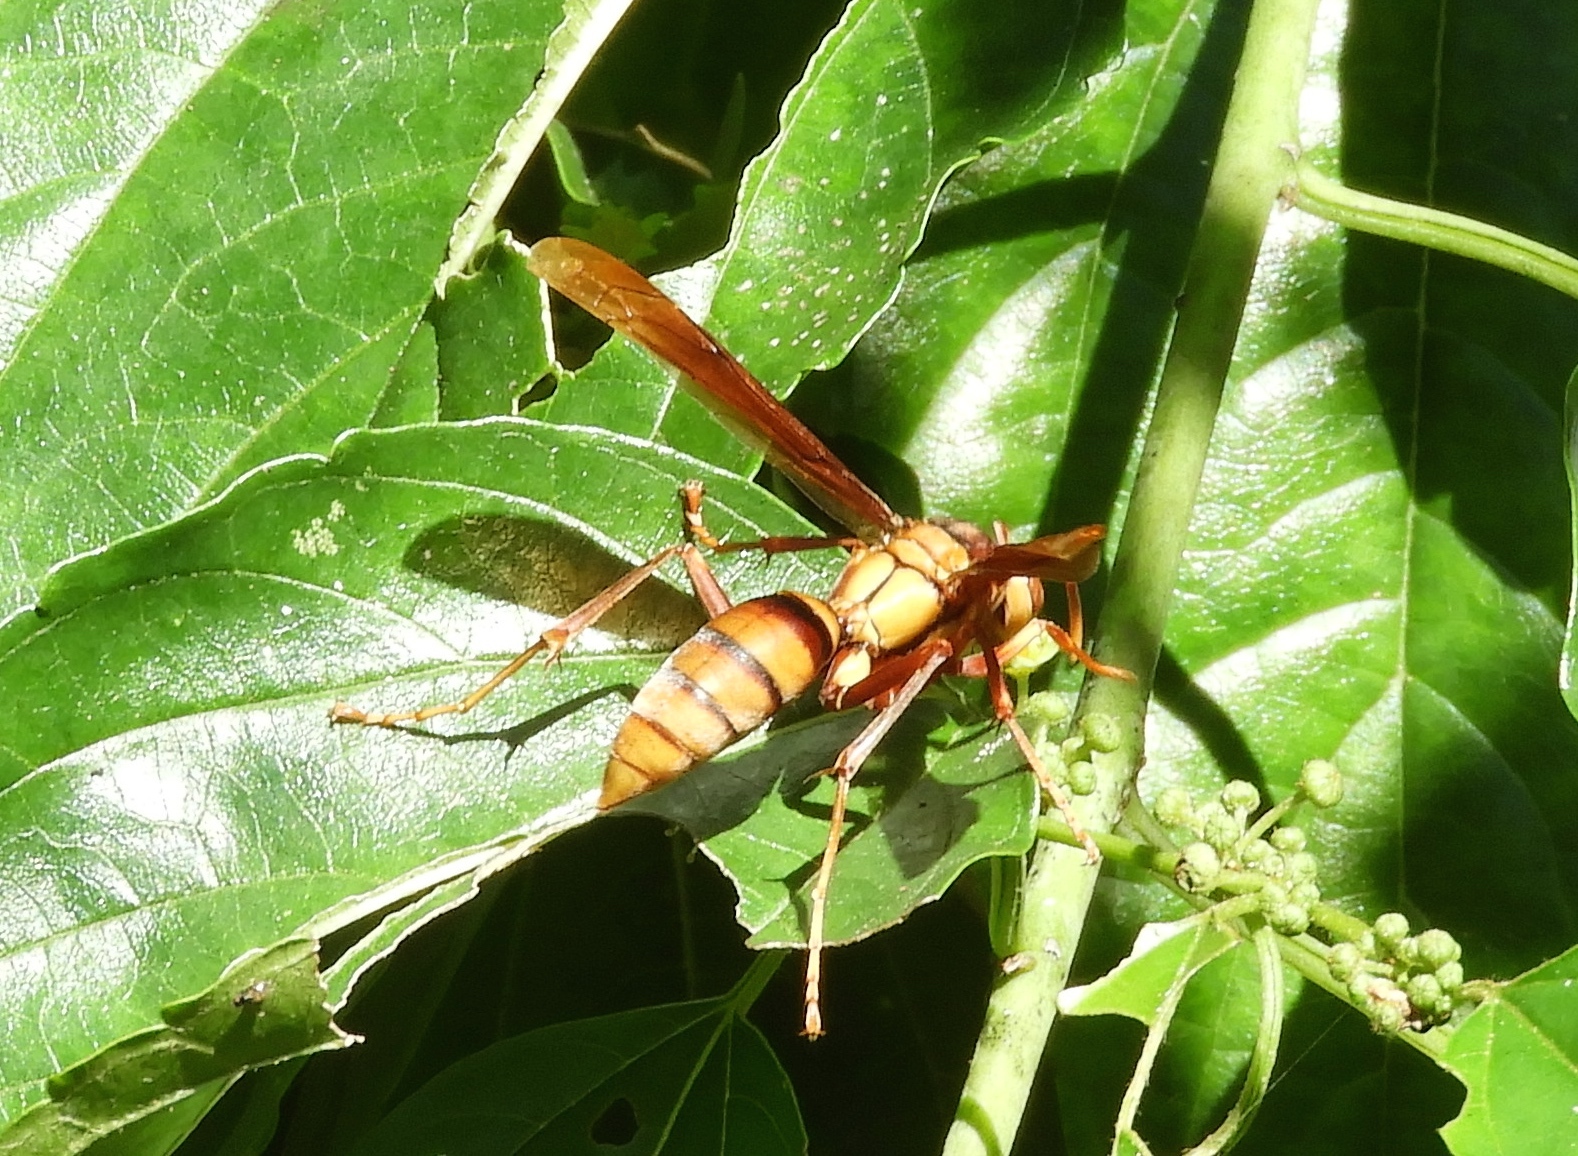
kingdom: Animalia
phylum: Arthropoda
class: Insecta
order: Hymenoptera
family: Eumenidae
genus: Polistes
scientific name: Polistes major
